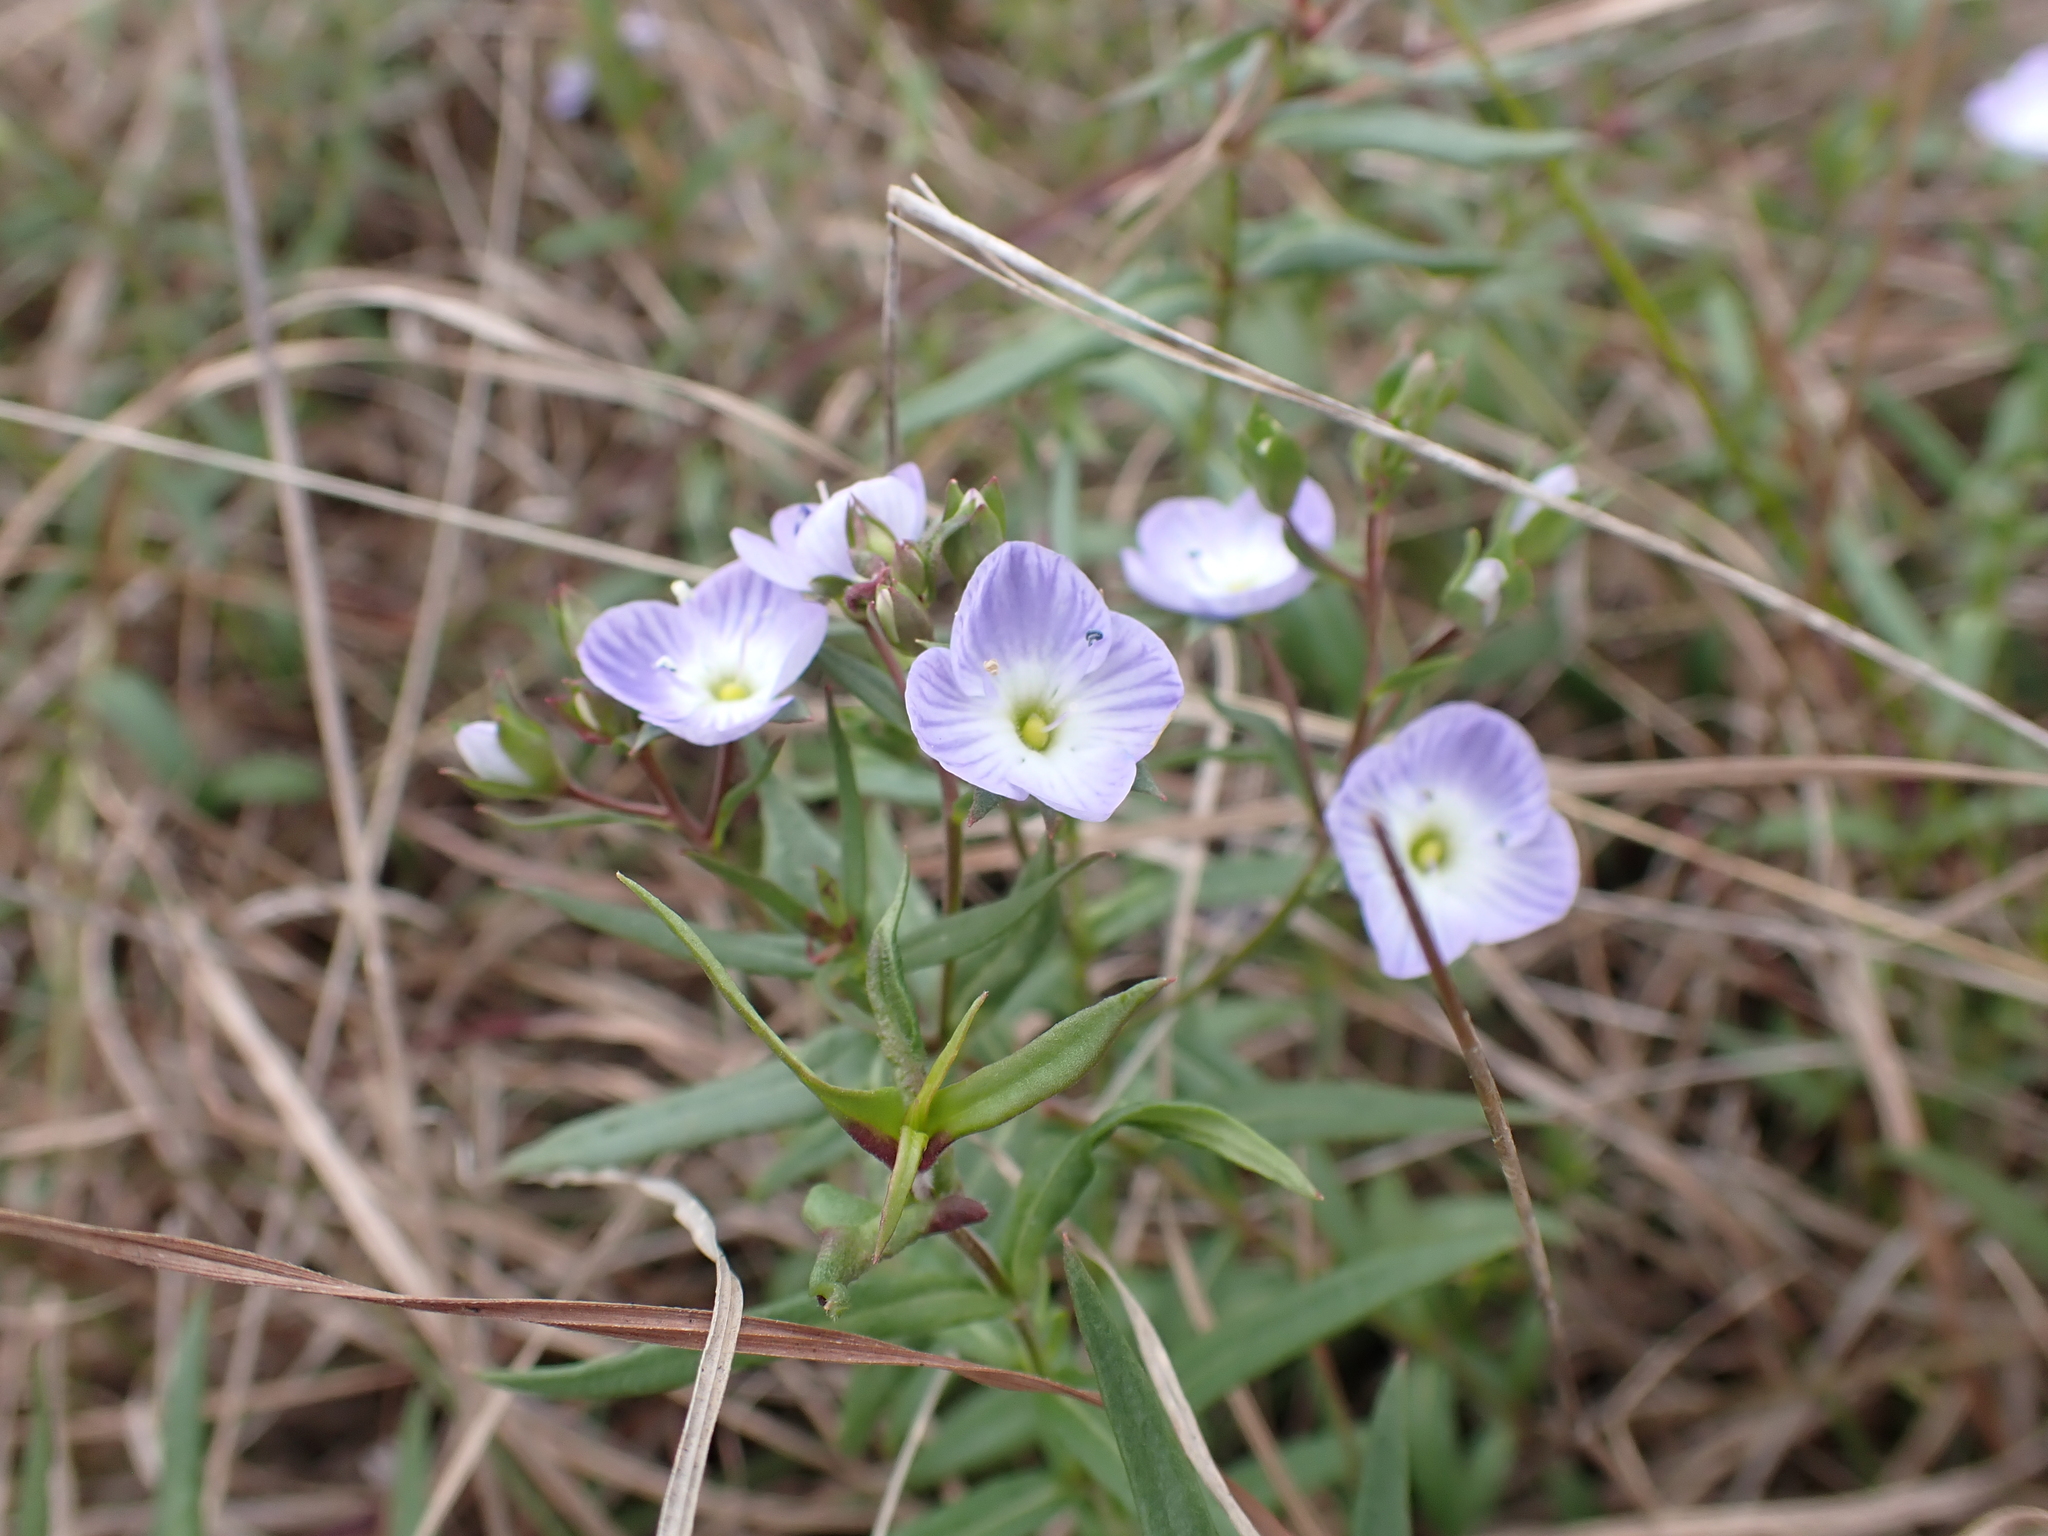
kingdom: Plantae
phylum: Tracheophyta
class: Magnoliopsida
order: Lamiales
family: Plantaginaceae
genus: Veronica
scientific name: Veronica gracilis
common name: Slender speedwell
